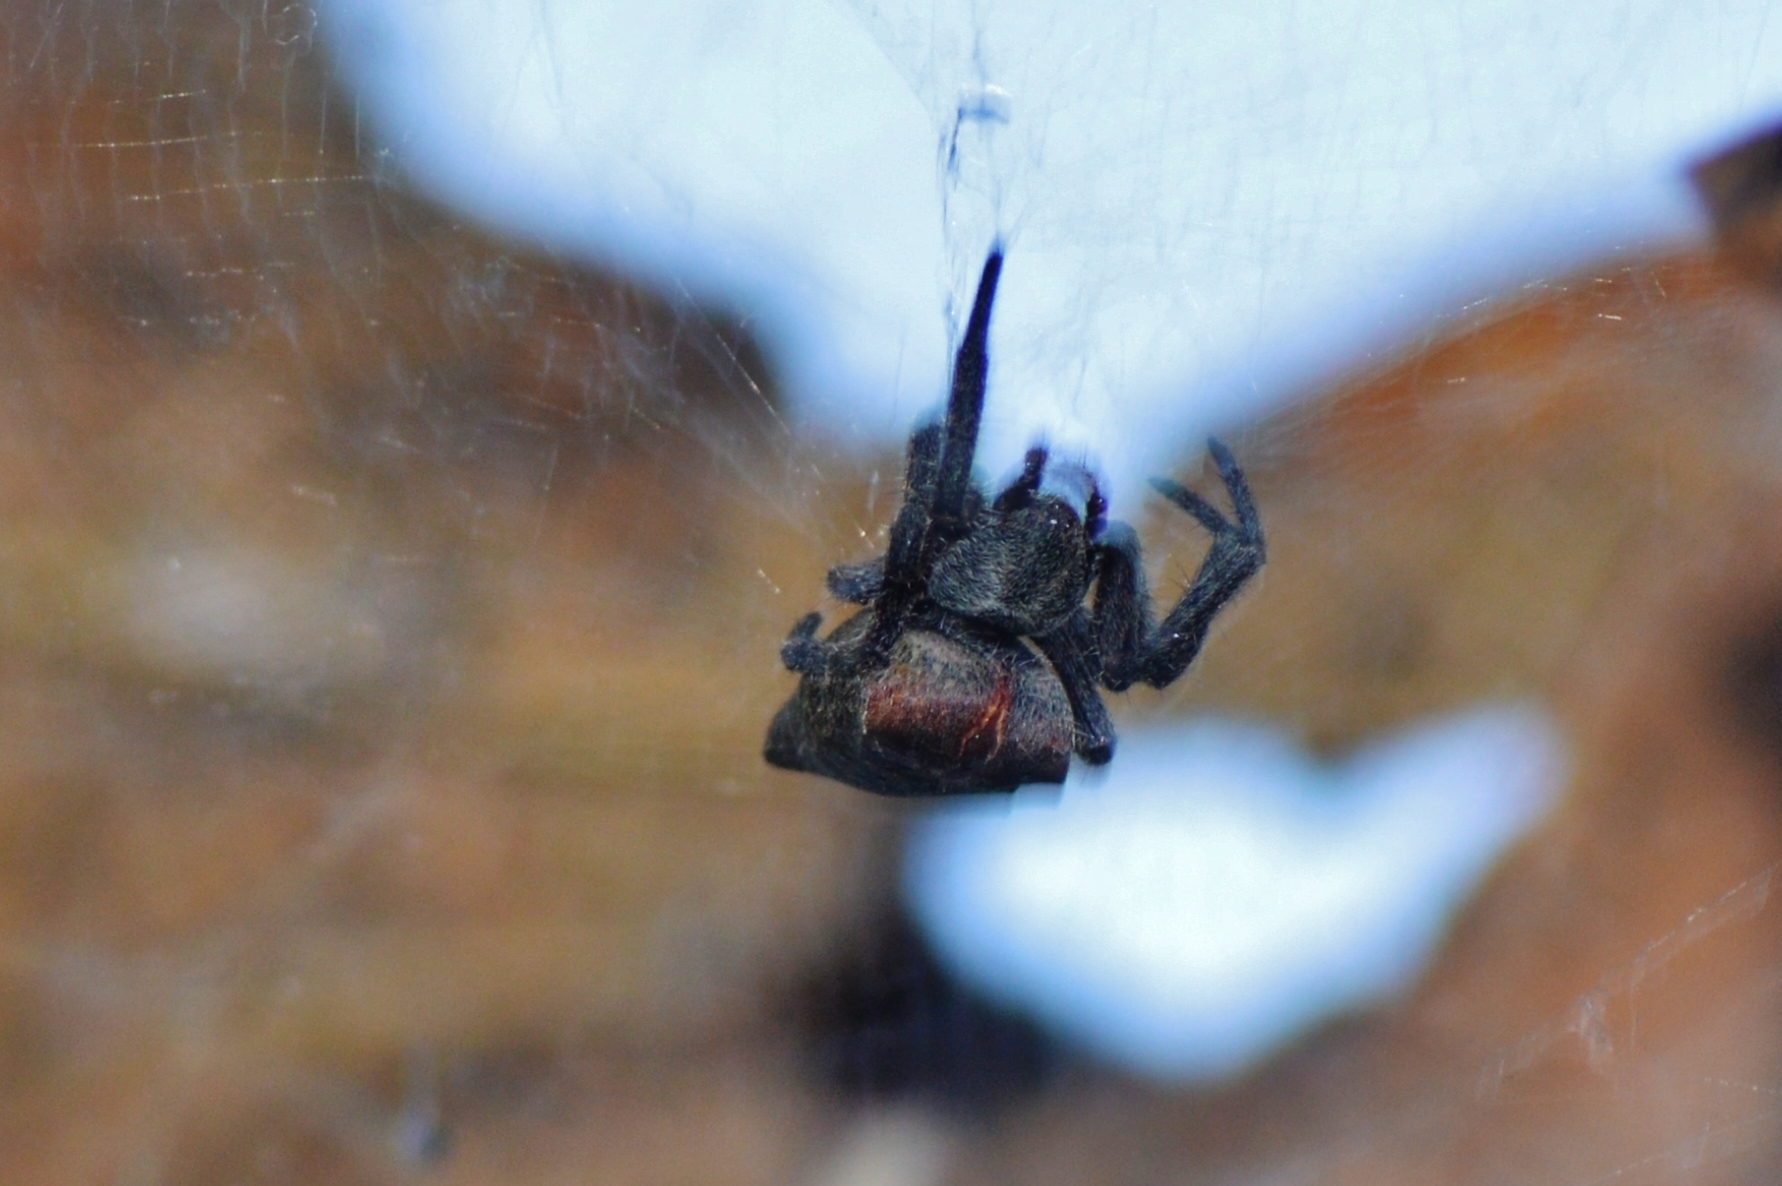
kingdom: Animalia
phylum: Arthropoda
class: Arachnida
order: Araneae
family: Araneidae
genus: Cyrtophora
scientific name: Cyrtophora citricola
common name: Orb weavers
